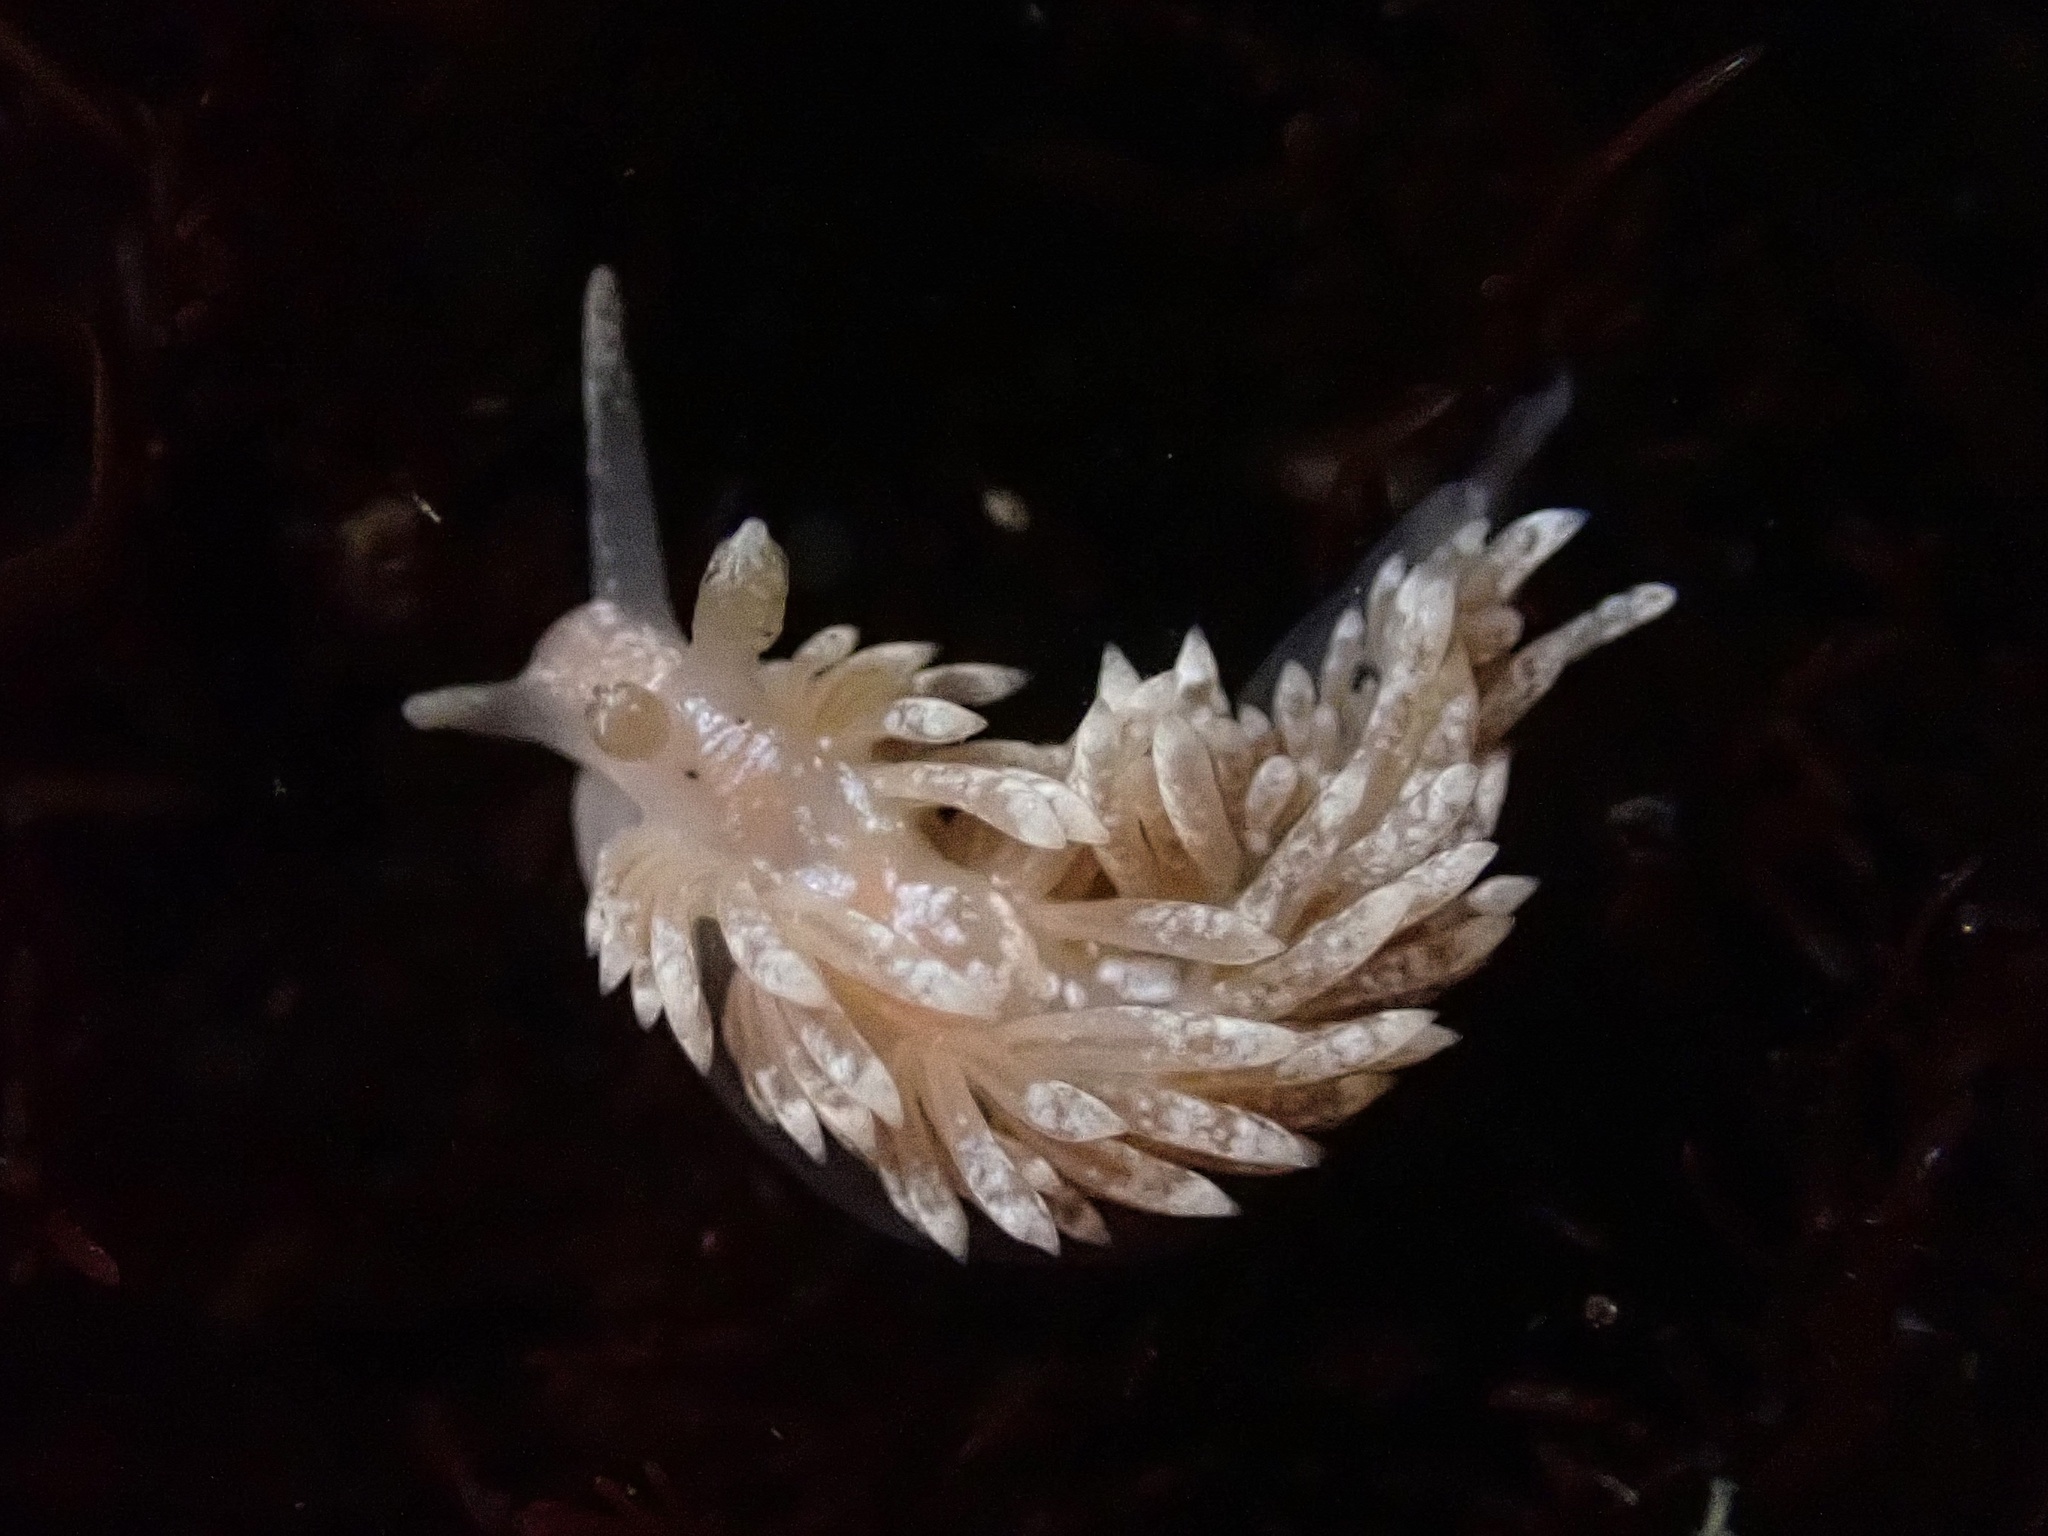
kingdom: Animalia
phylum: Mollusca
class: Gastropoda
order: Nudibranchia
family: Aeolidiidae
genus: Anteaeolidiella
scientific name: Anteaeolidiella chromosoma
